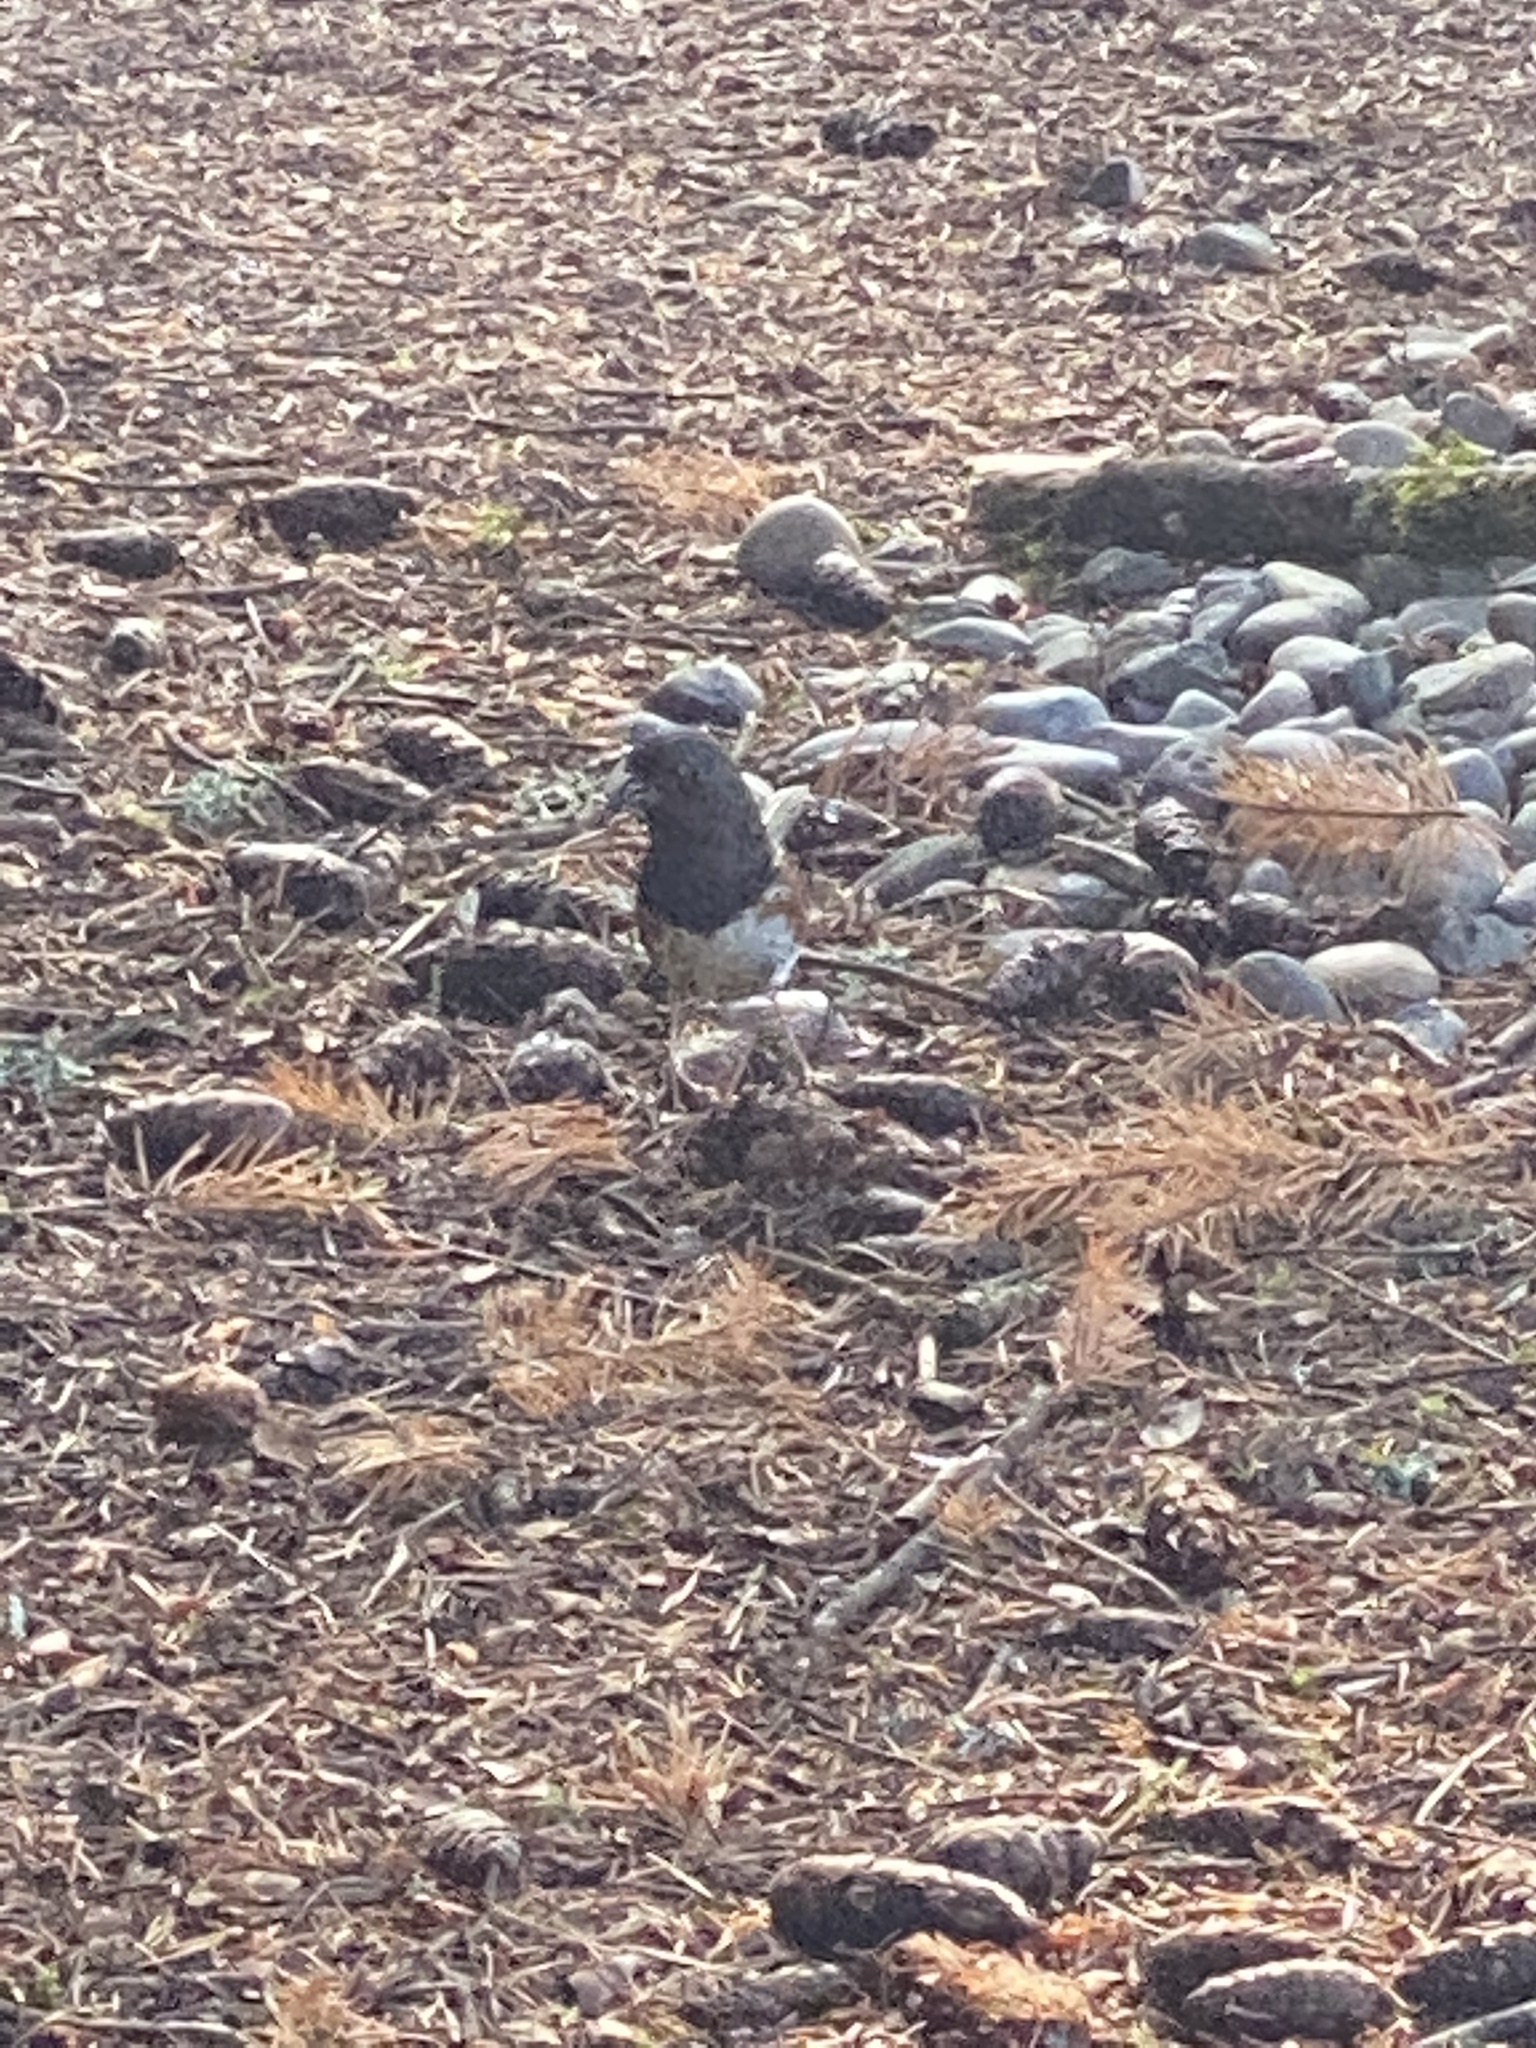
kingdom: Animalia
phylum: Chordata
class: Aves
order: Passeriformes
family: Passerellidae
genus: Pipilo
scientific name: Pipilo maculatus
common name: Spotted towhee
